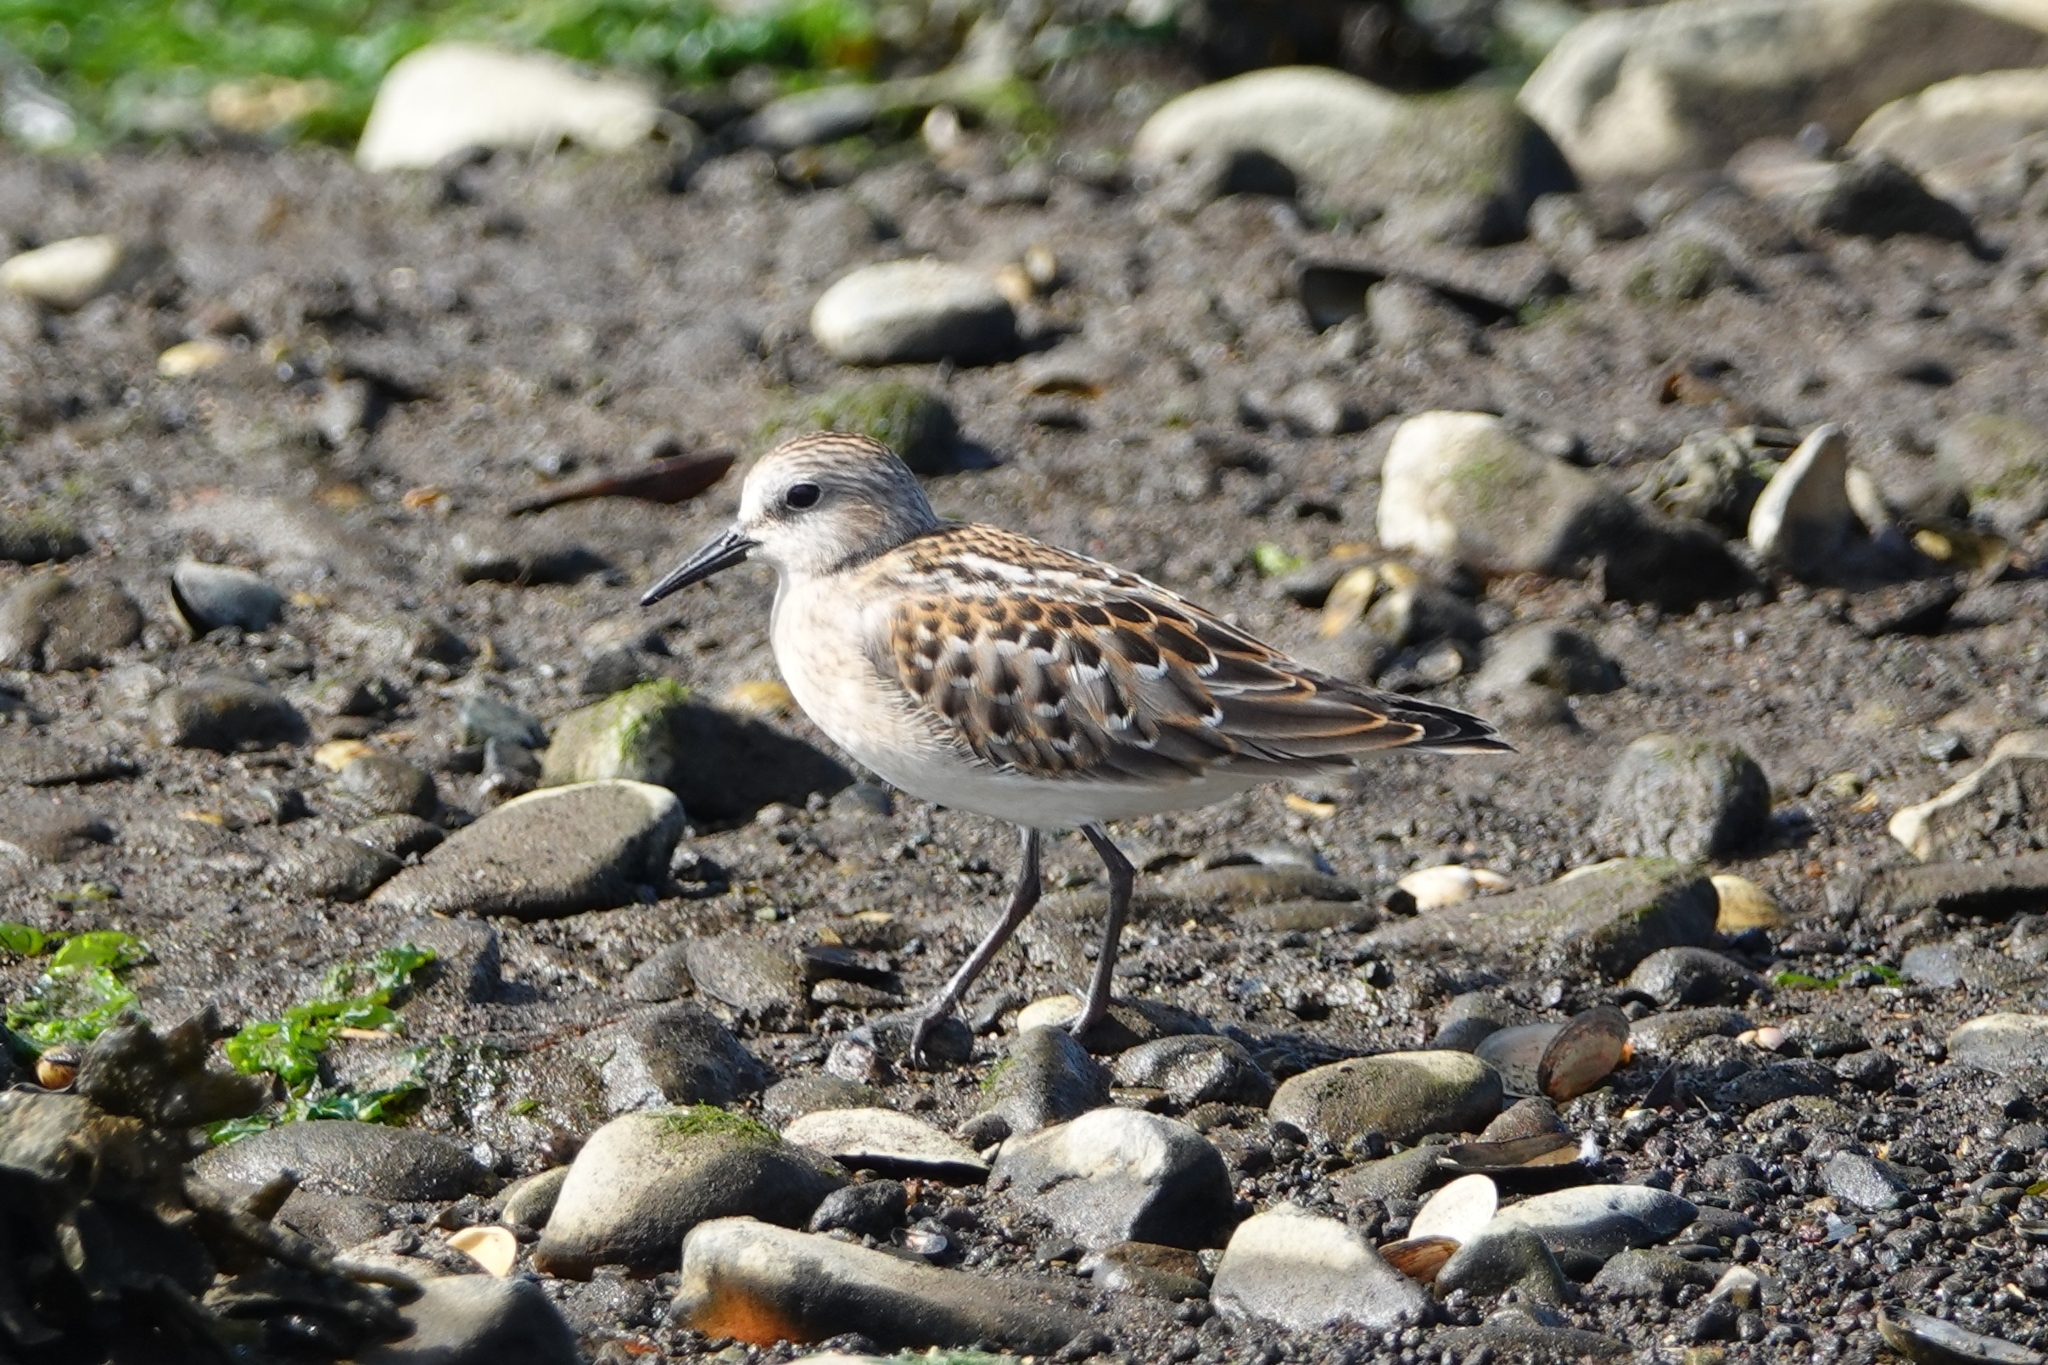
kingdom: Animalia
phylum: Chordata
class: Aves
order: Charadriiformes
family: Scolopacidae
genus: Calidris
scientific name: Calidris ruficollis
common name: Red-necked stint
